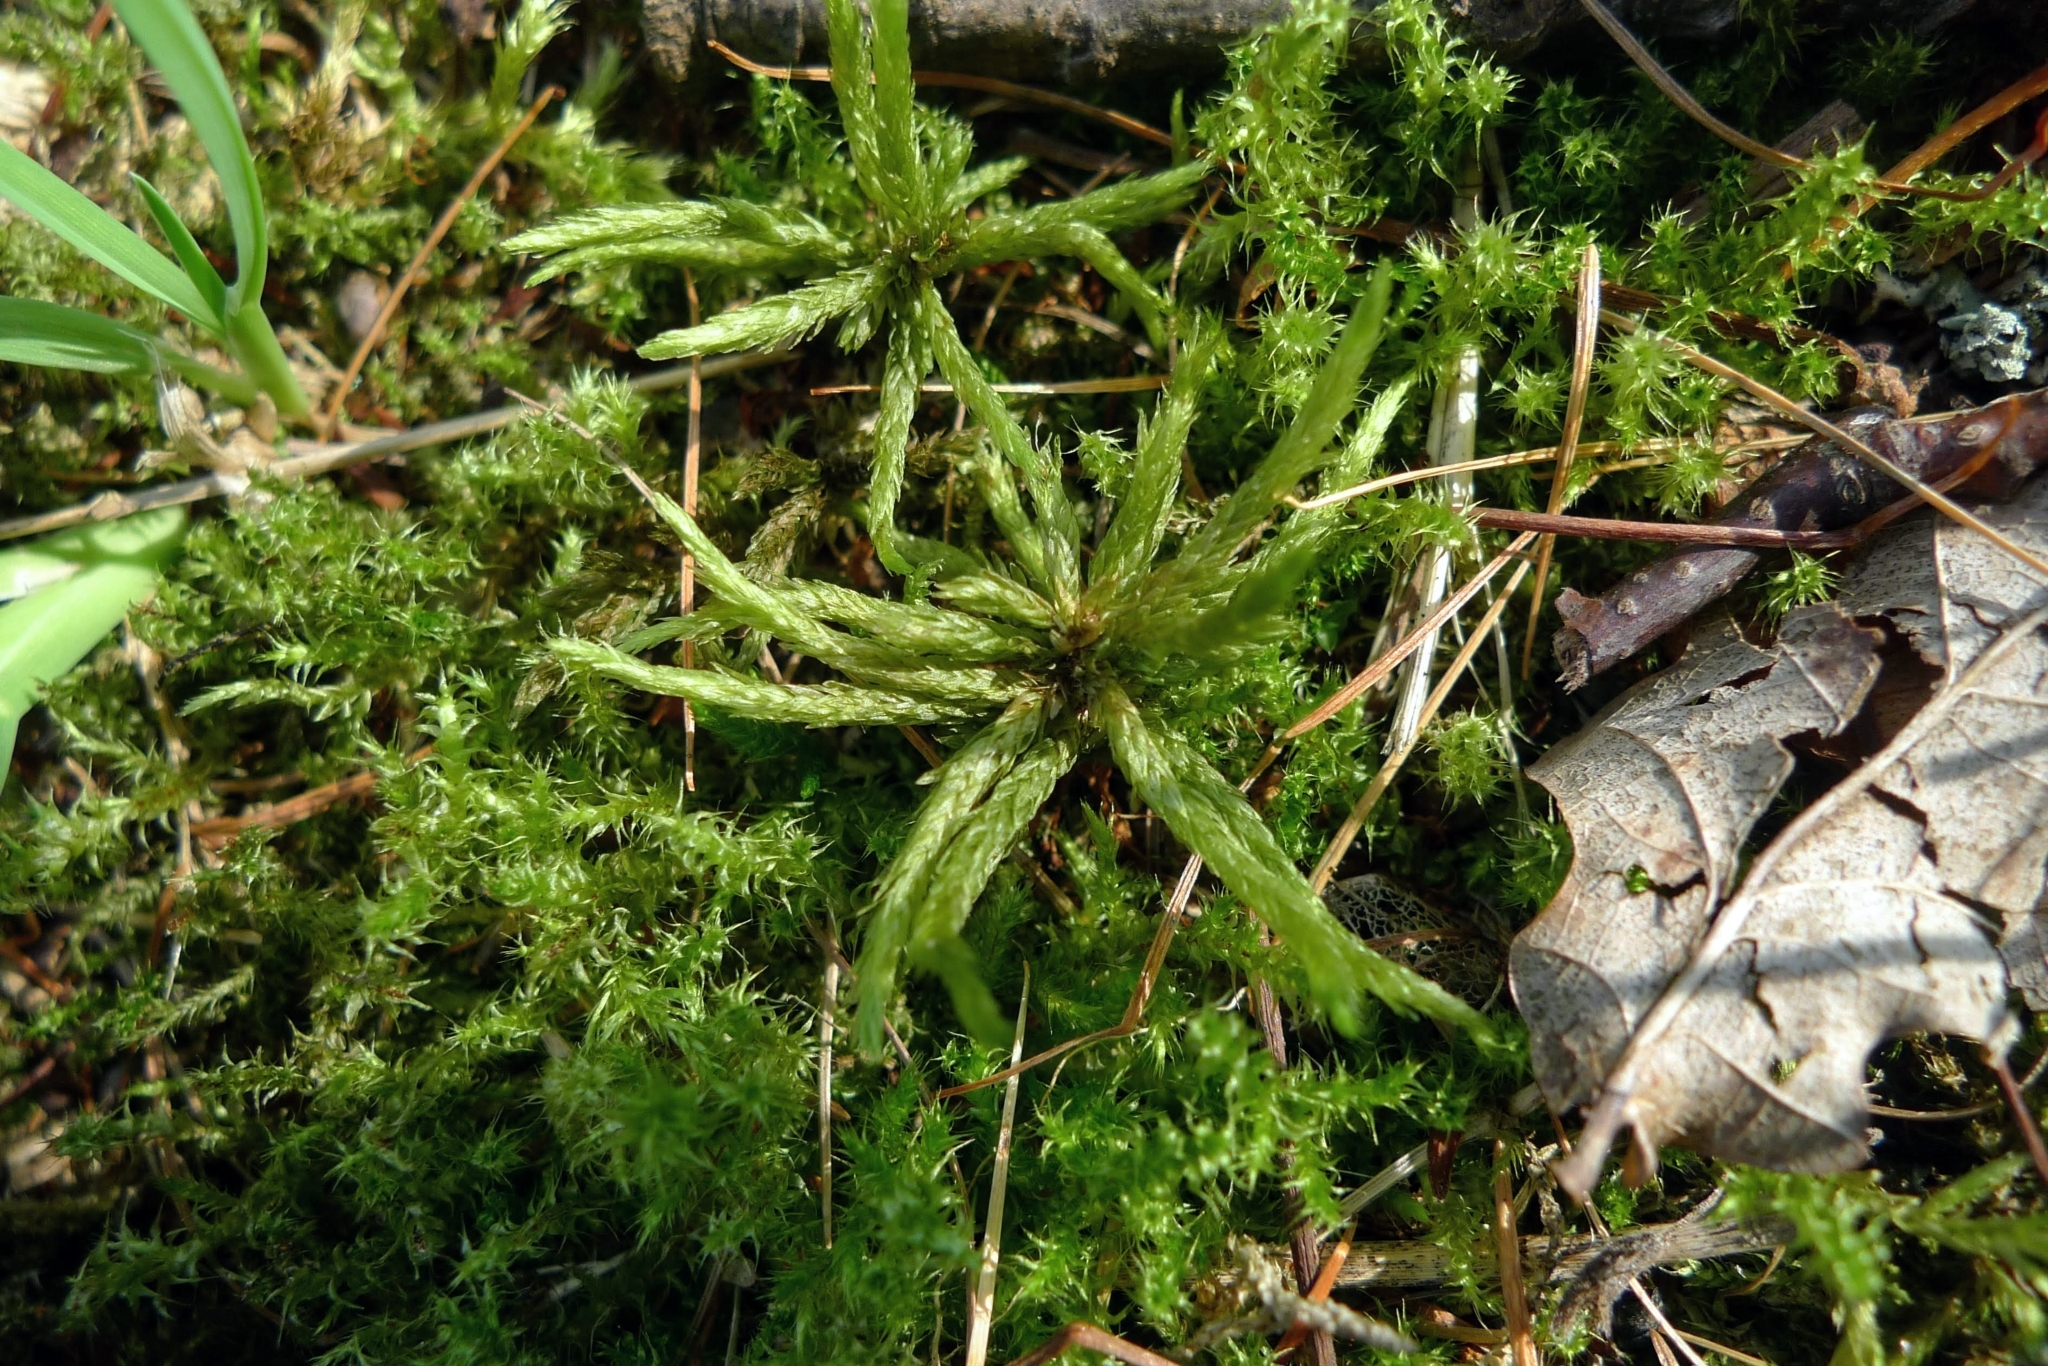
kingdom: Plantae
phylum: Bryophyta
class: Bryopsida
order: Hypnales
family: Climaciaceae
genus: Climacium
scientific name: Climacium dendroides
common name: Northern tree moss
